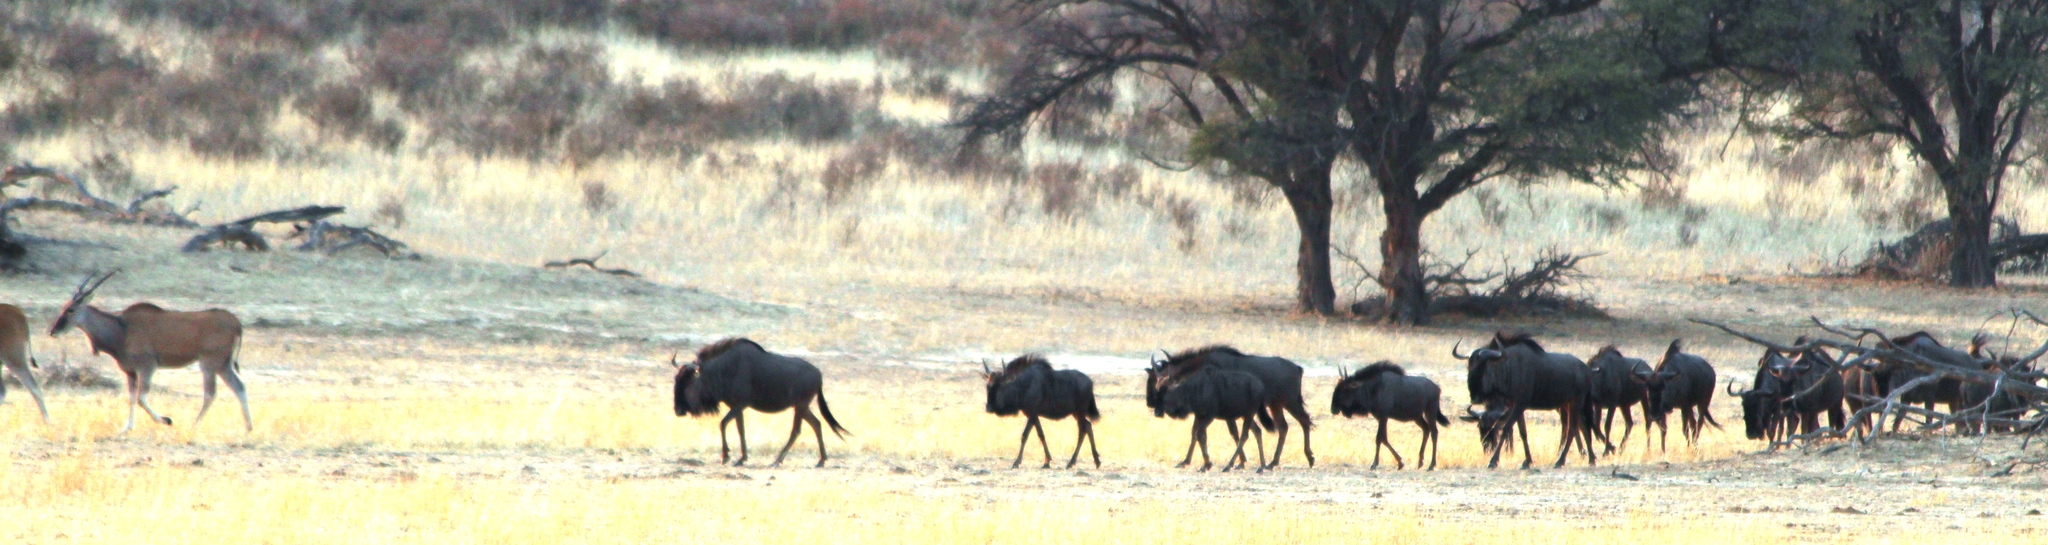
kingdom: Animalia
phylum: Chordata
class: Mammalia
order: Artiodactyla
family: Bovidae
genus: Connochaetes
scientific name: Connochaetes taurinus
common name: Blue wildebeest
